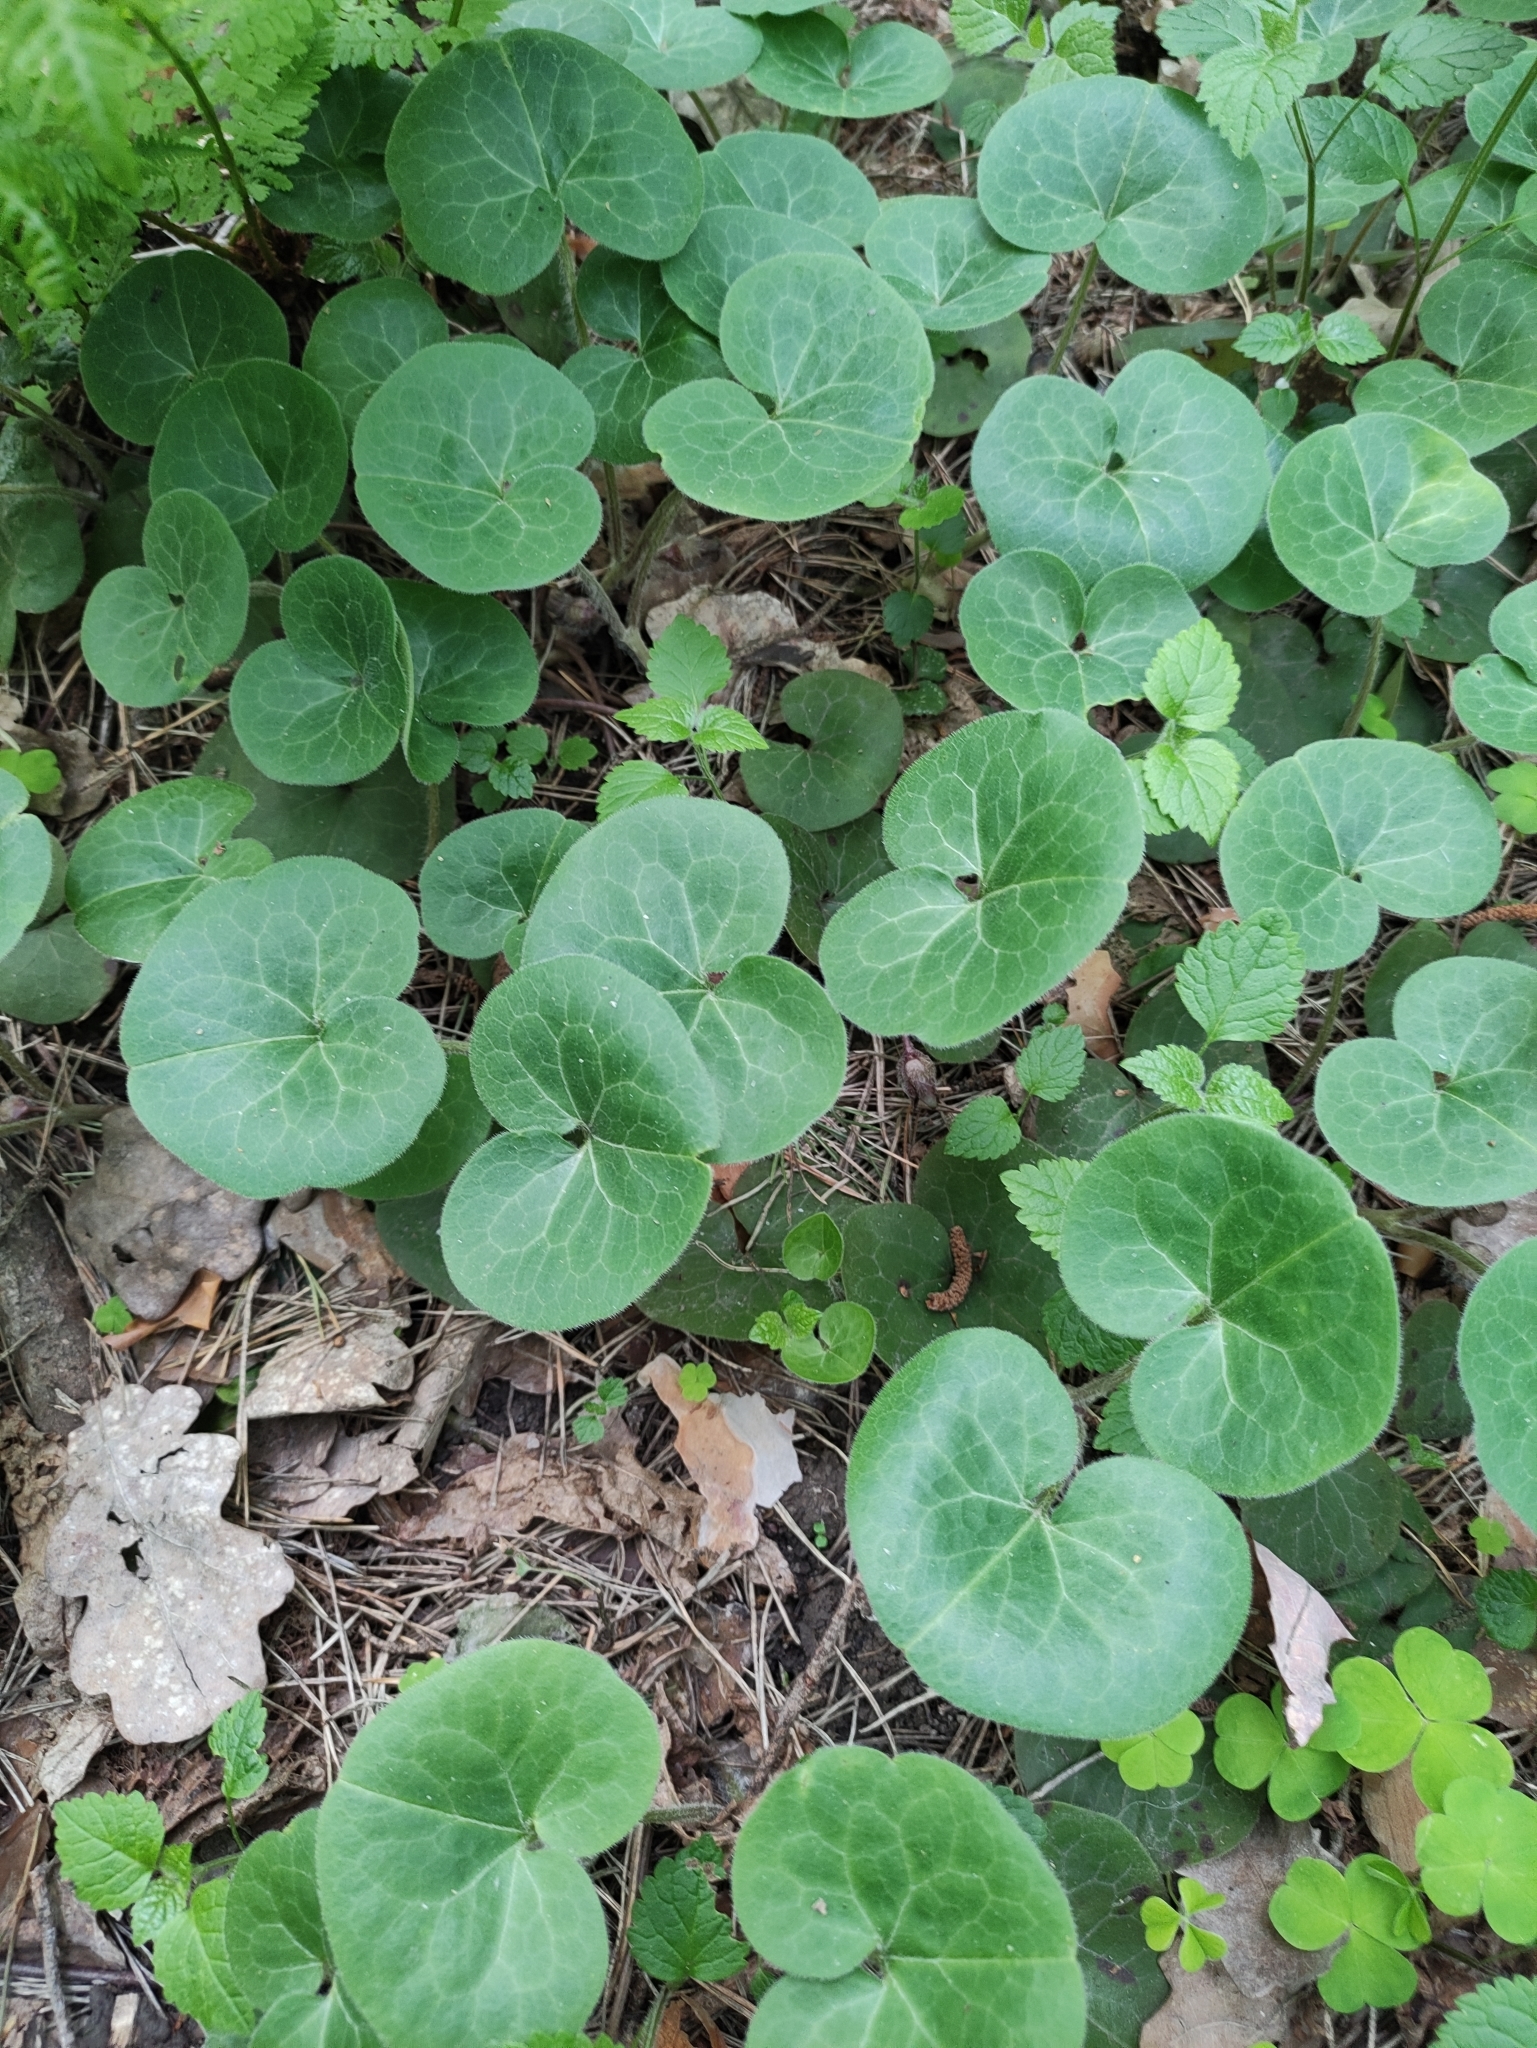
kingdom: Plantae
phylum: Tracheophyta
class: Magnoliopsida
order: Piperales
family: Aristolochiaceae
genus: Asarum
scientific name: Asarum europaeum
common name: Asarabacca
